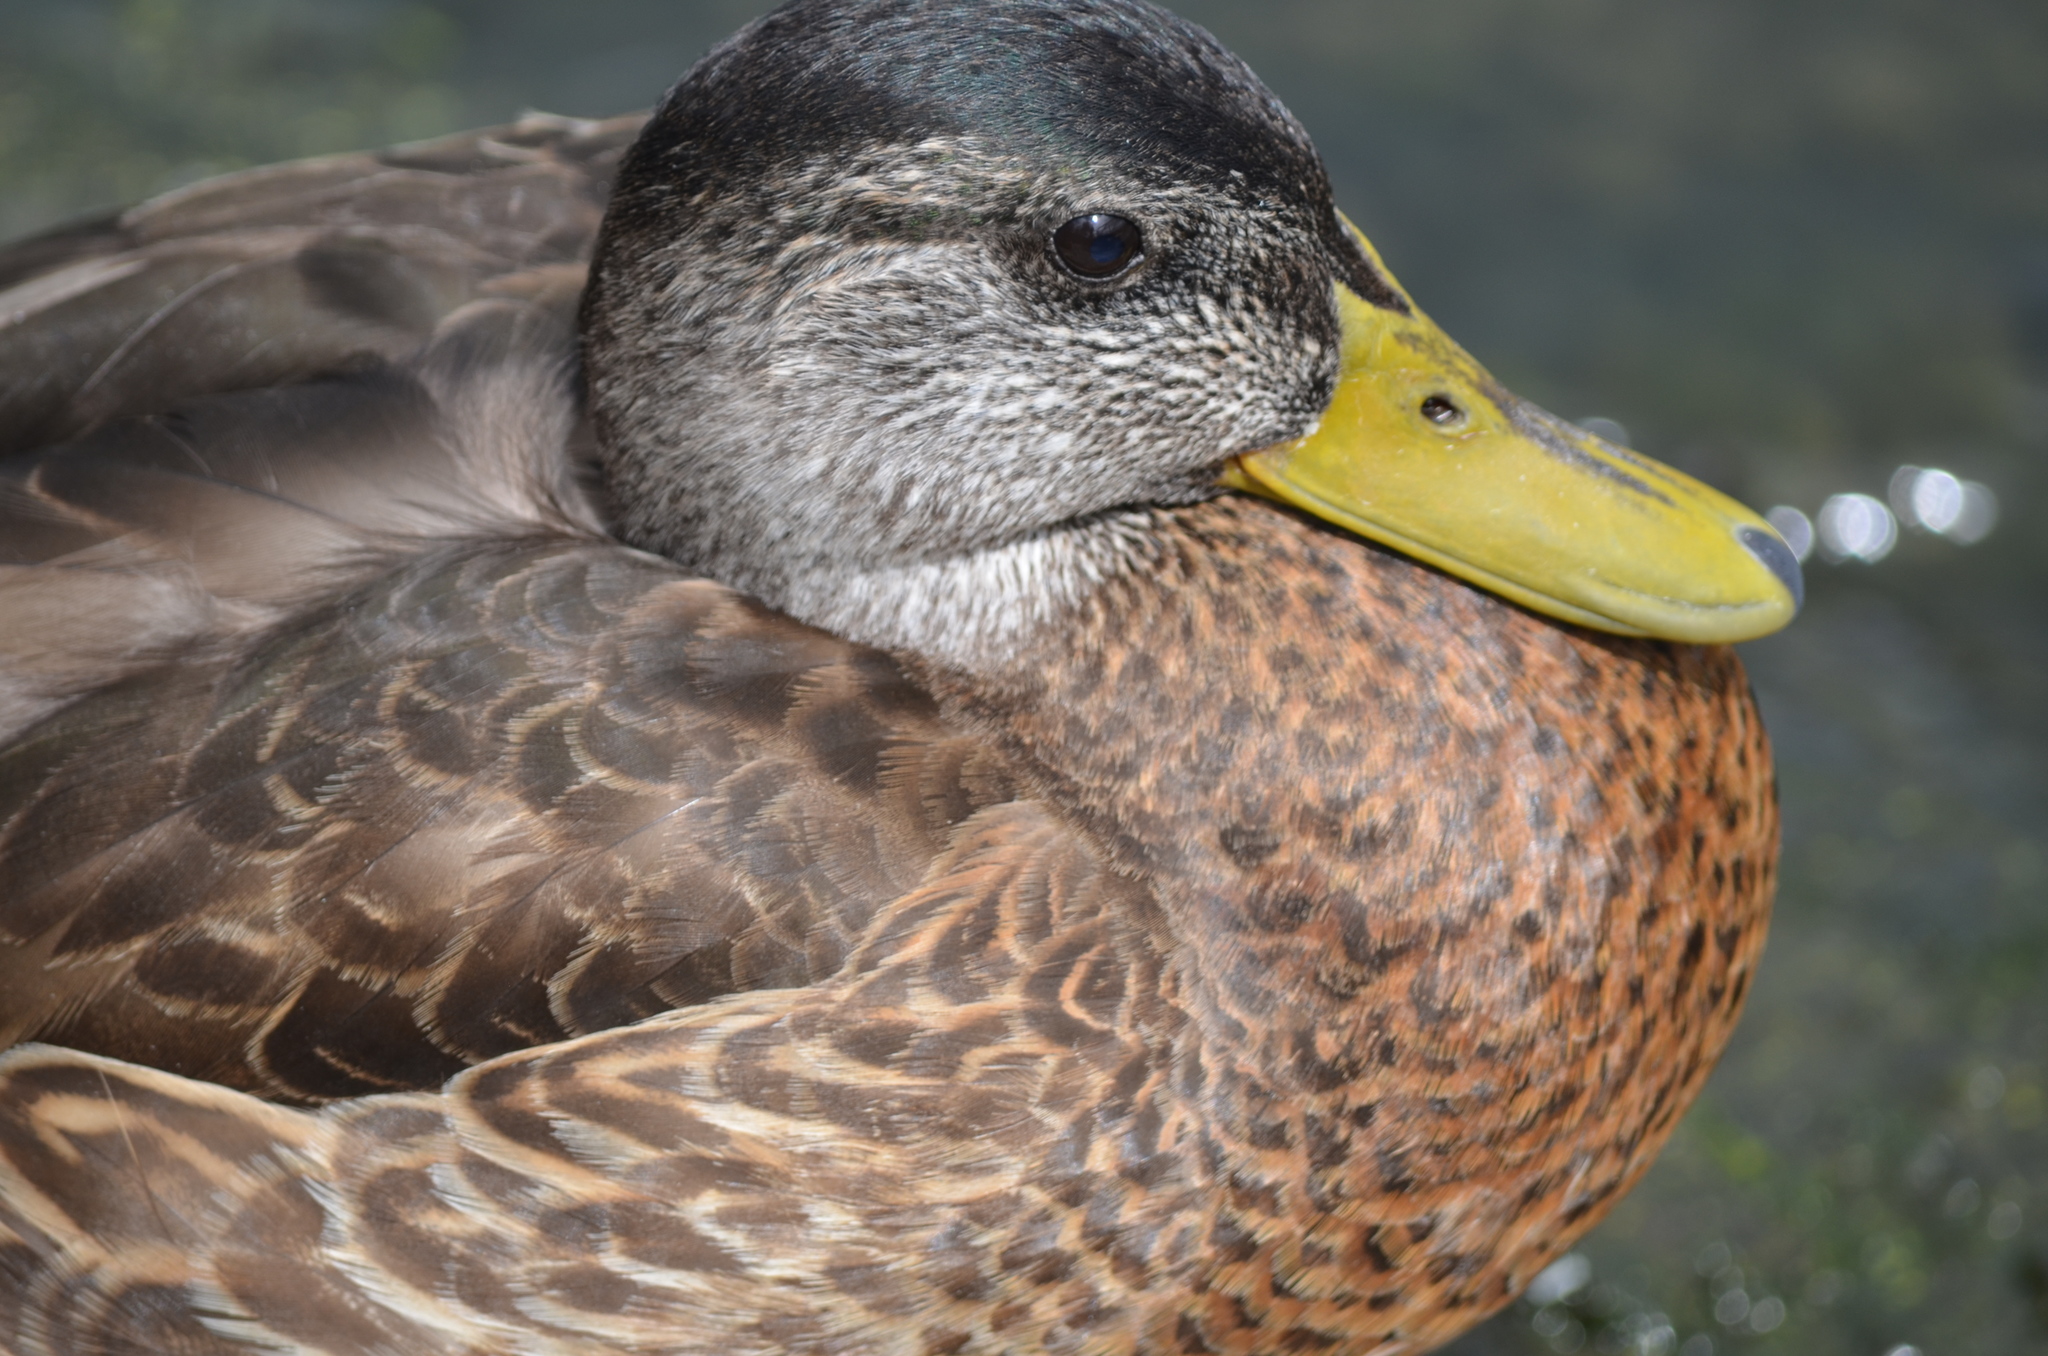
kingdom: Animalia
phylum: Chordata
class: Aves
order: Anseriformes
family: Anatidae
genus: Anas
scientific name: Anas platyrhynchos
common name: Mallard
